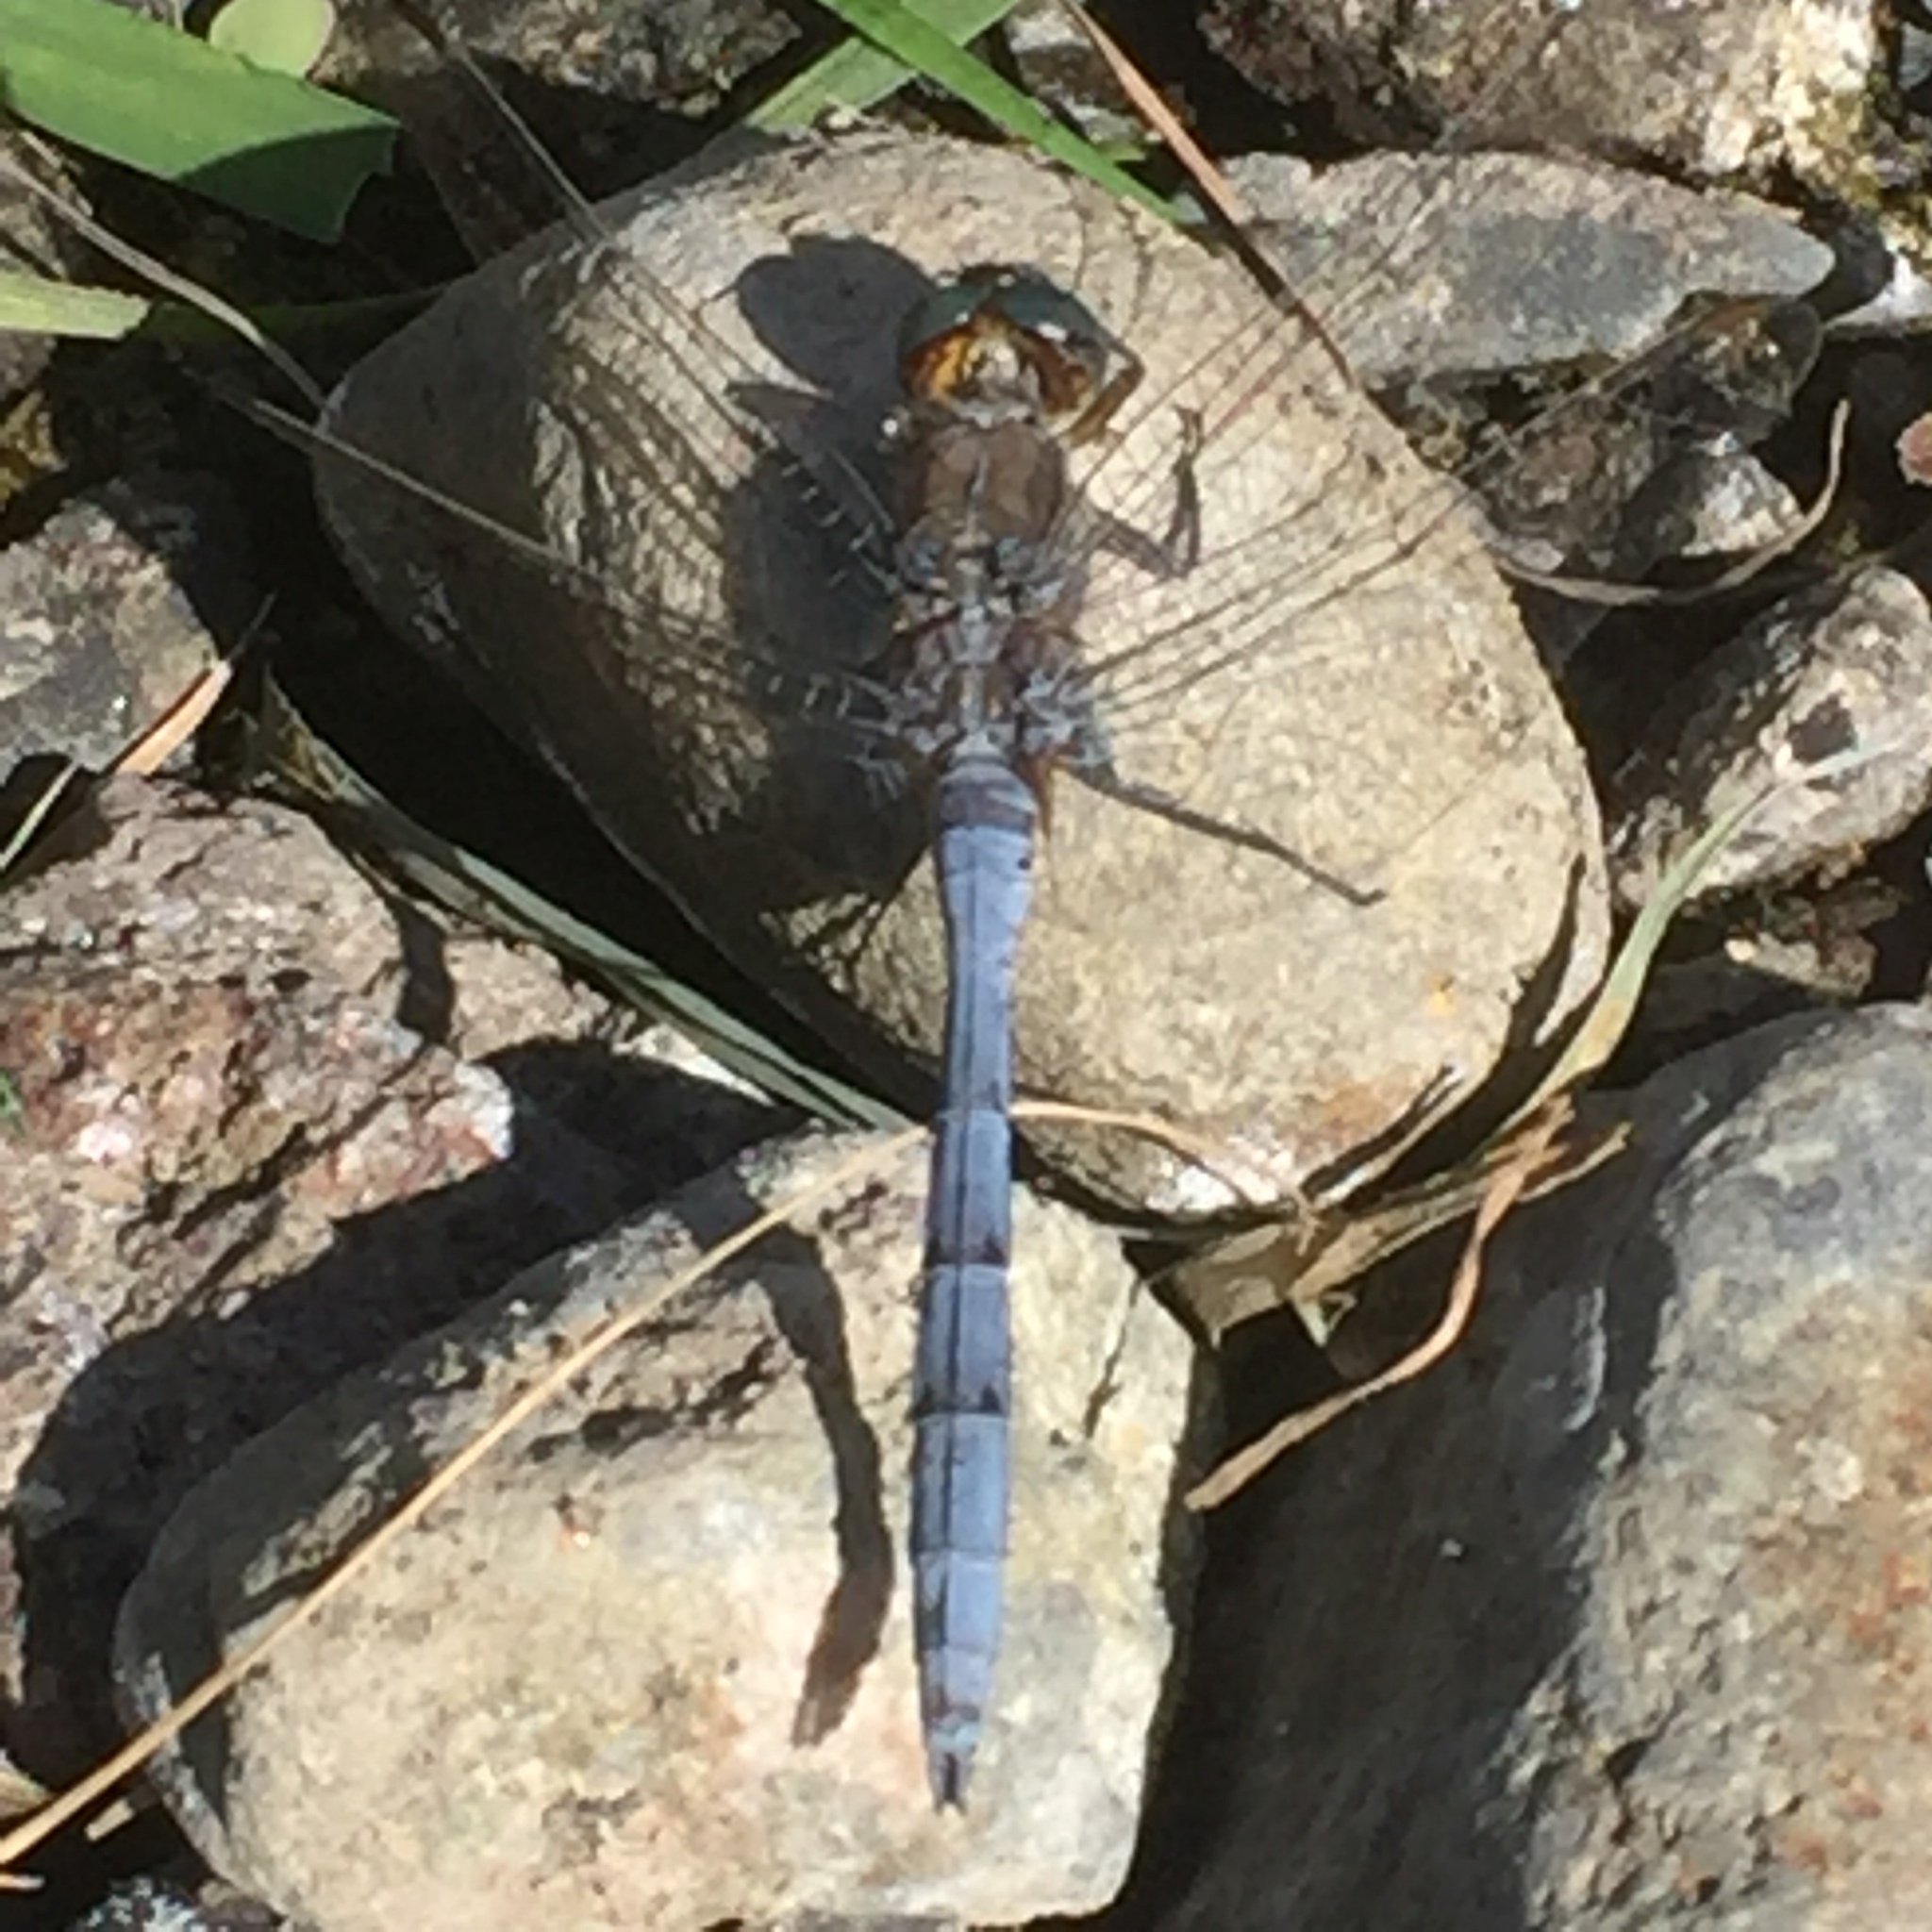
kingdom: Animalia
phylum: Arthropoda
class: Insecta
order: Odonata
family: Libellulidae
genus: Orthetrum
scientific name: Orthetrum chrysostigma
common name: Epaulet skimmer
